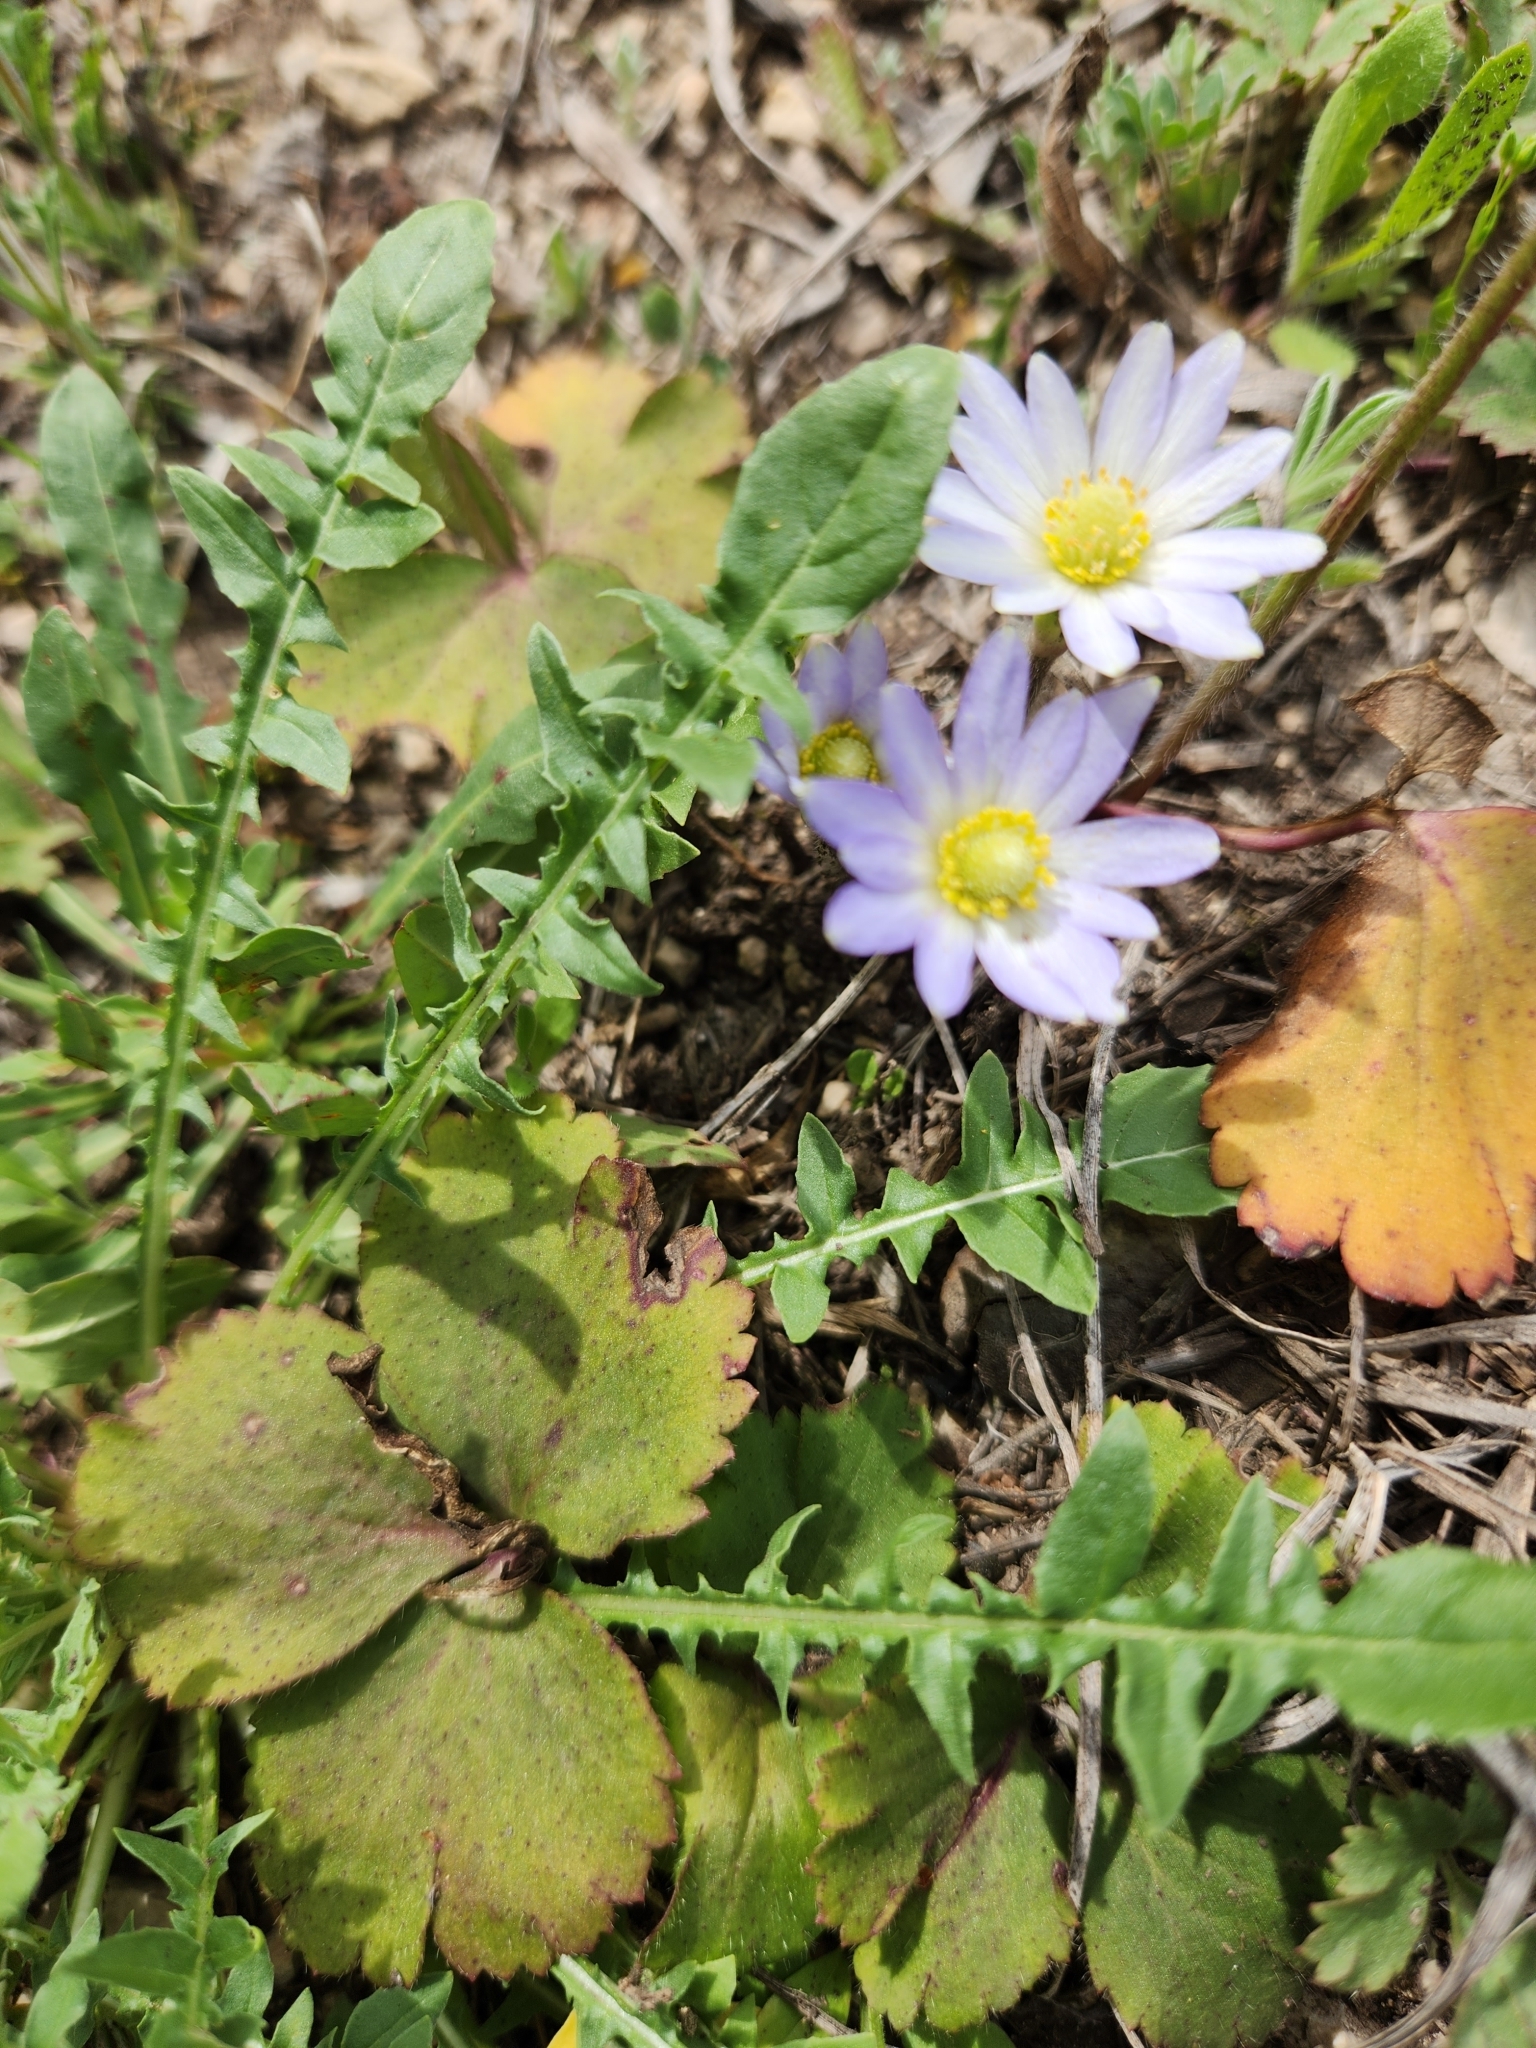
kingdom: Plantae
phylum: Tracheophyta
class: Magnoliopsida
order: Ranunculales
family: Ranunculaceae
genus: Anemone
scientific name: Anemone berlandieri
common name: Ten-petal anemone
